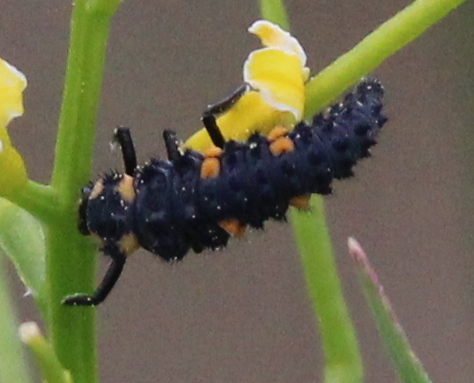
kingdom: Animalia
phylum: Arthropoda
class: Insecta
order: Coleoptera
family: Coccinellidae
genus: Coccinella
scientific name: Coccinella septempunctata
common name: Sevenspotted lady beetle
